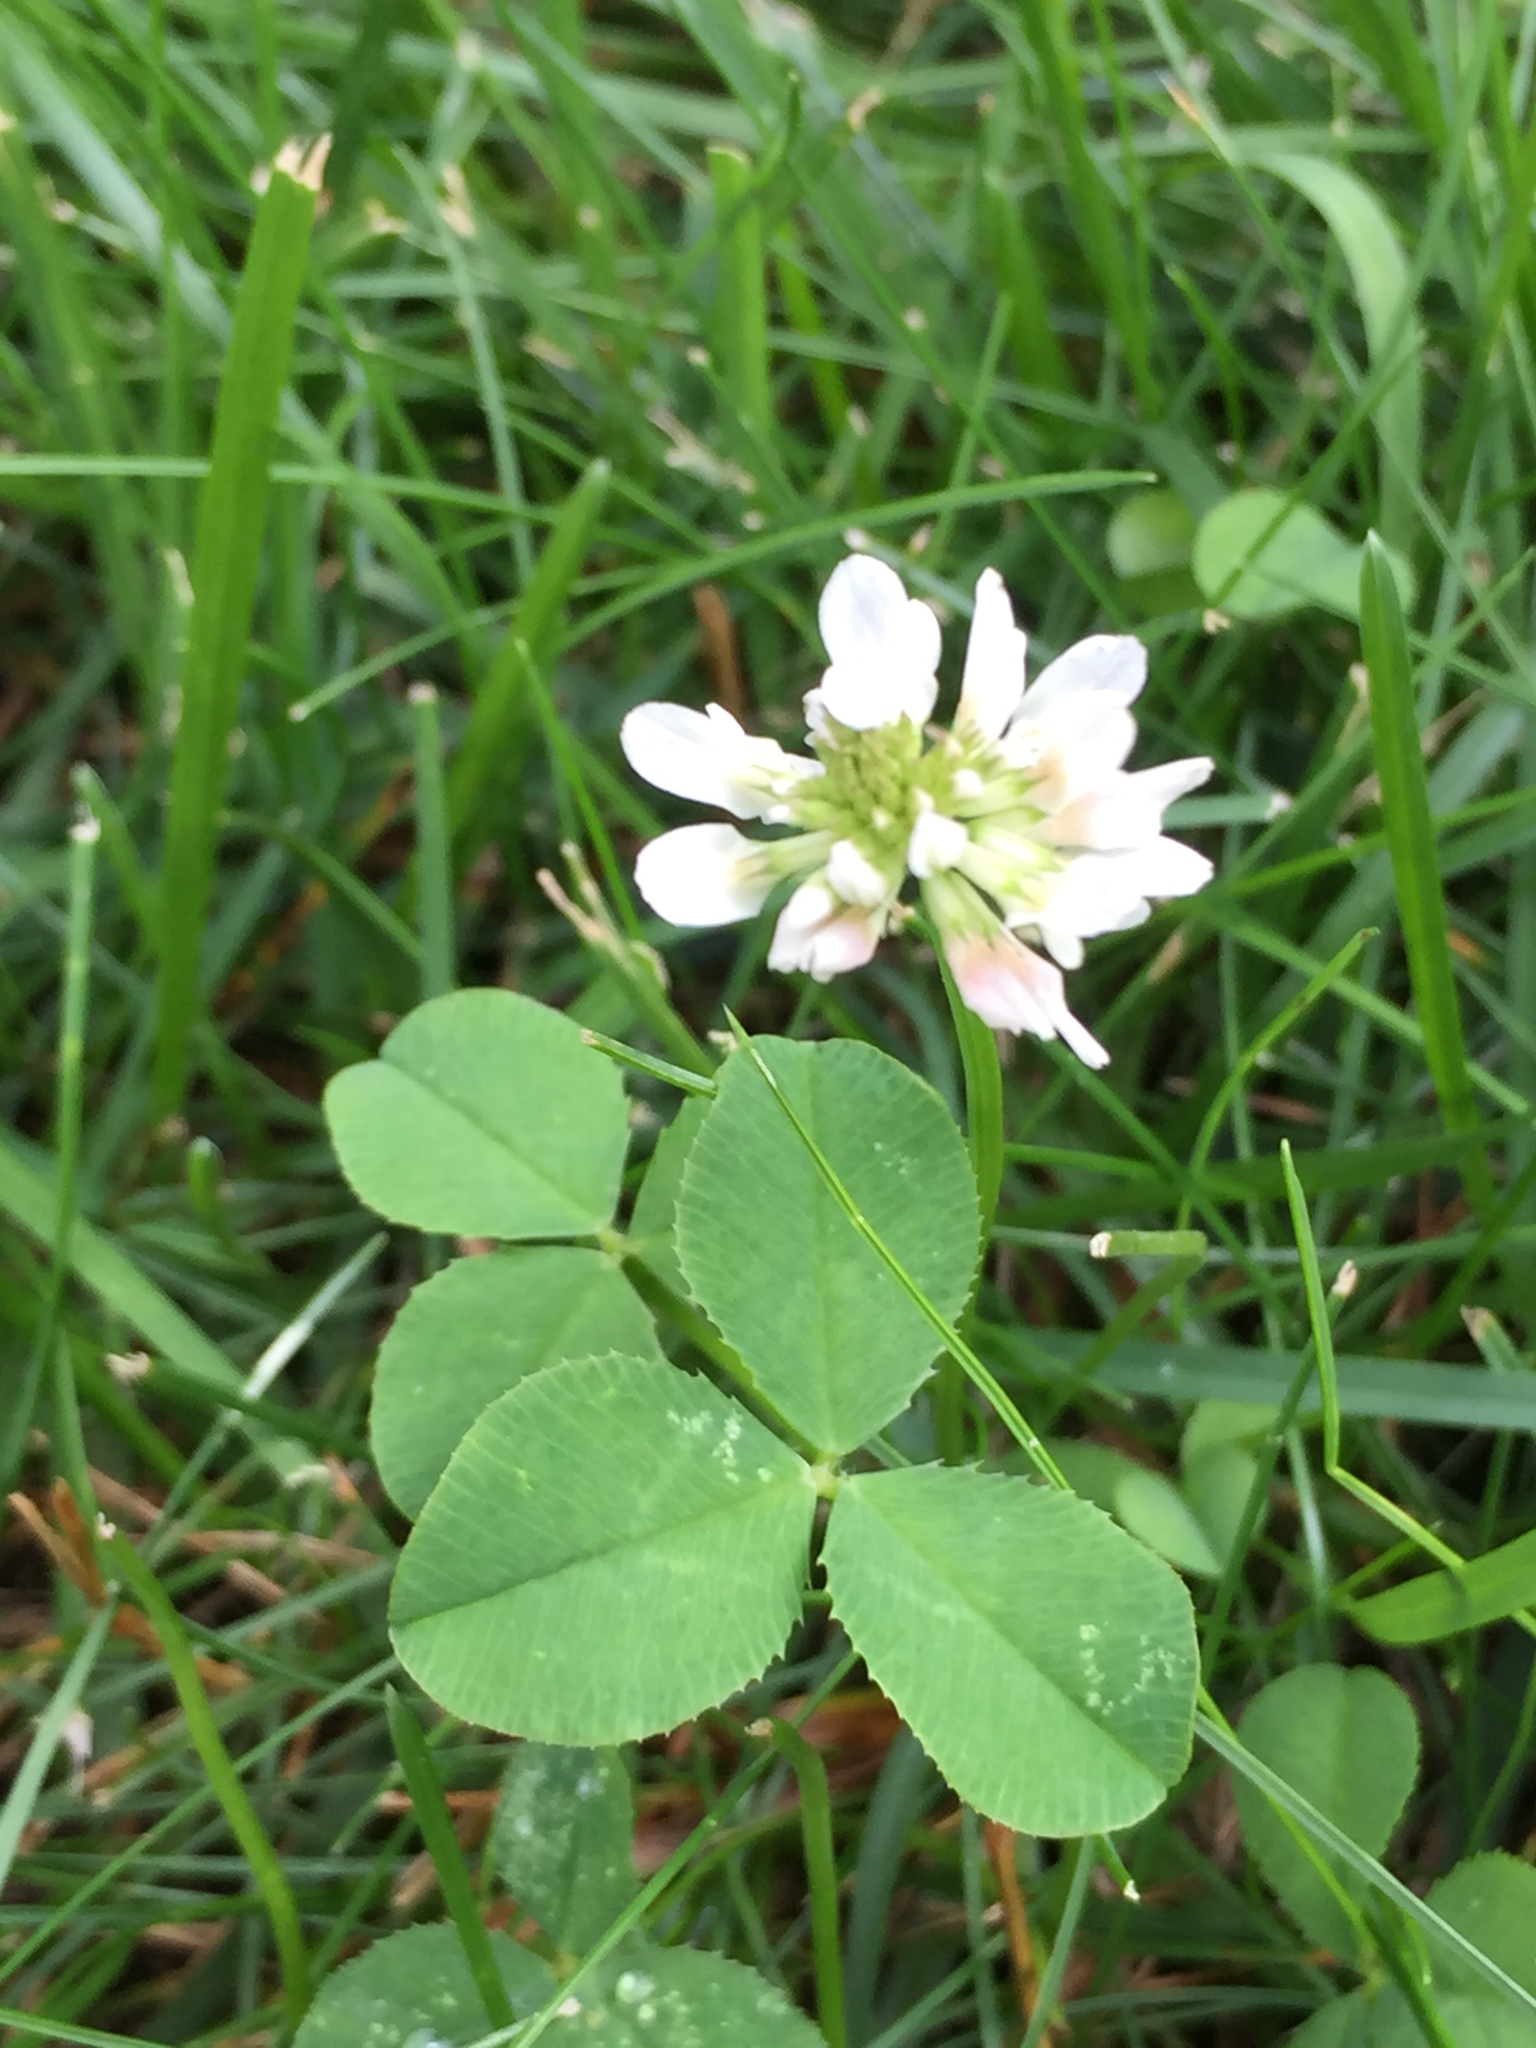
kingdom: Plantae
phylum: Tracheophyta
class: Magnoliopsida
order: Fabales
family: Fabaceae
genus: Trifolium
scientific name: Trifolium repens
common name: White clover
